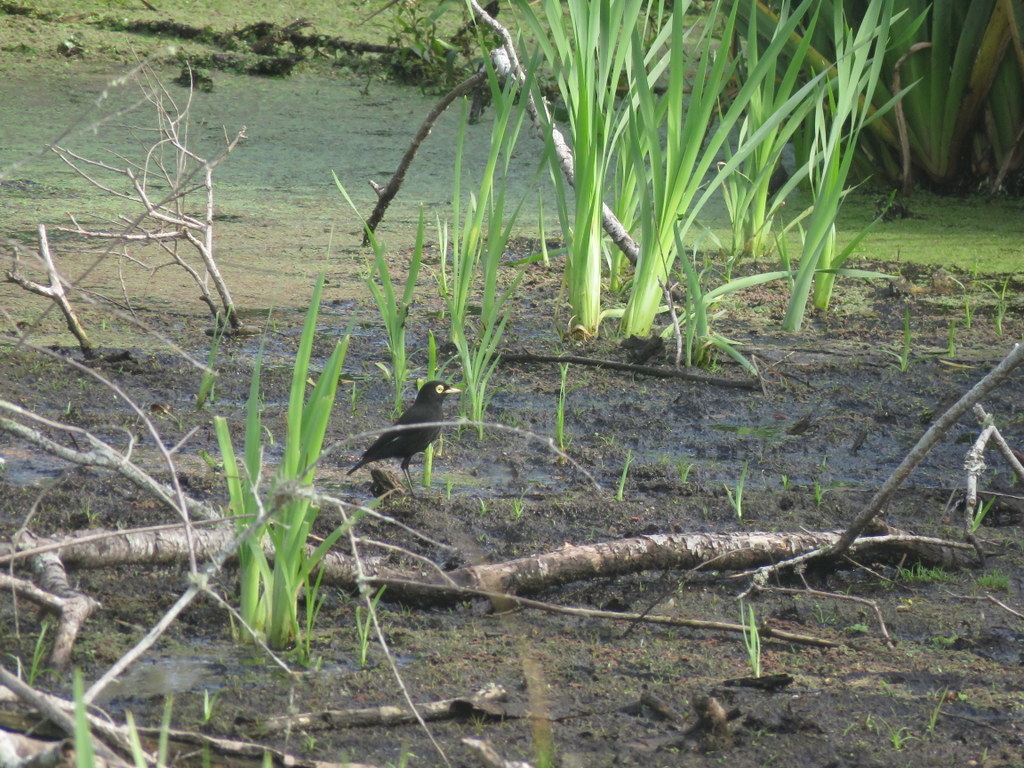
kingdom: Animalia
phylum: Chordata
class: Aves
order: Passeriformes
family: Tyrannidae
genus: Hymenops
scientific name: Hymenops perspicillatus
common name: Spectacled tyrant
